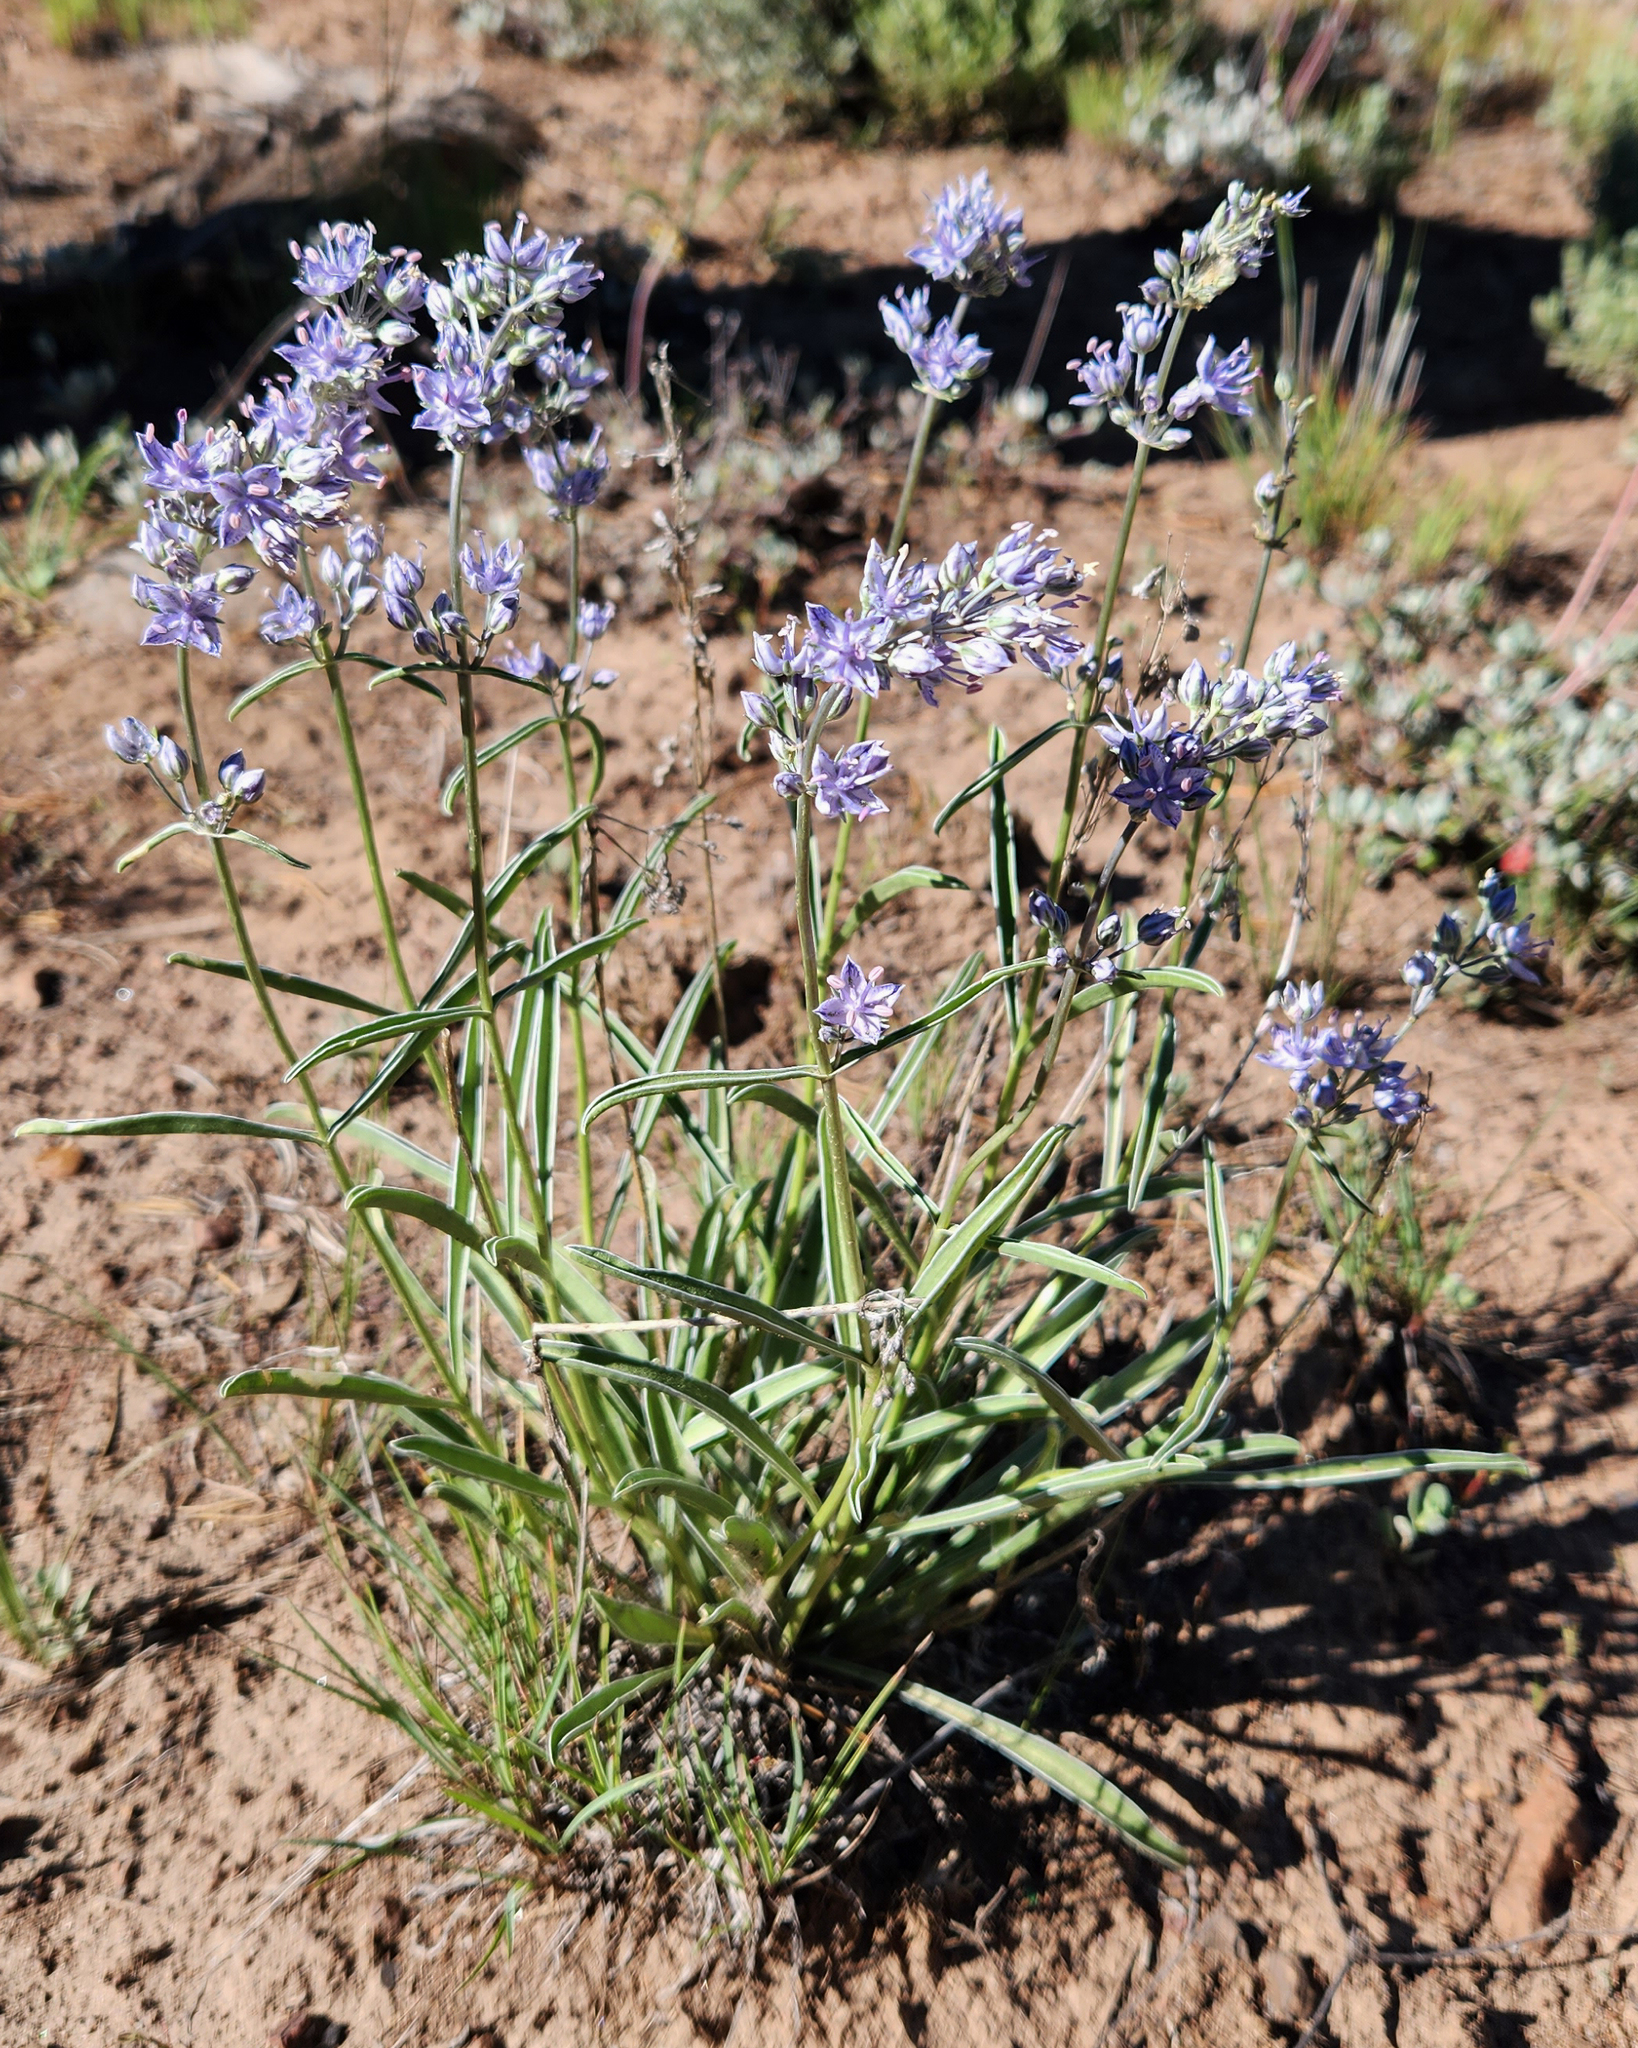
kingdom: Plantae
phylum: Tracheophyta
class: Magnoliopsida
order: Gentianales
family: Gentianaceae
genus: Frasera
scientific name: Frasera albicaulis
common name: Cusick's frasera
